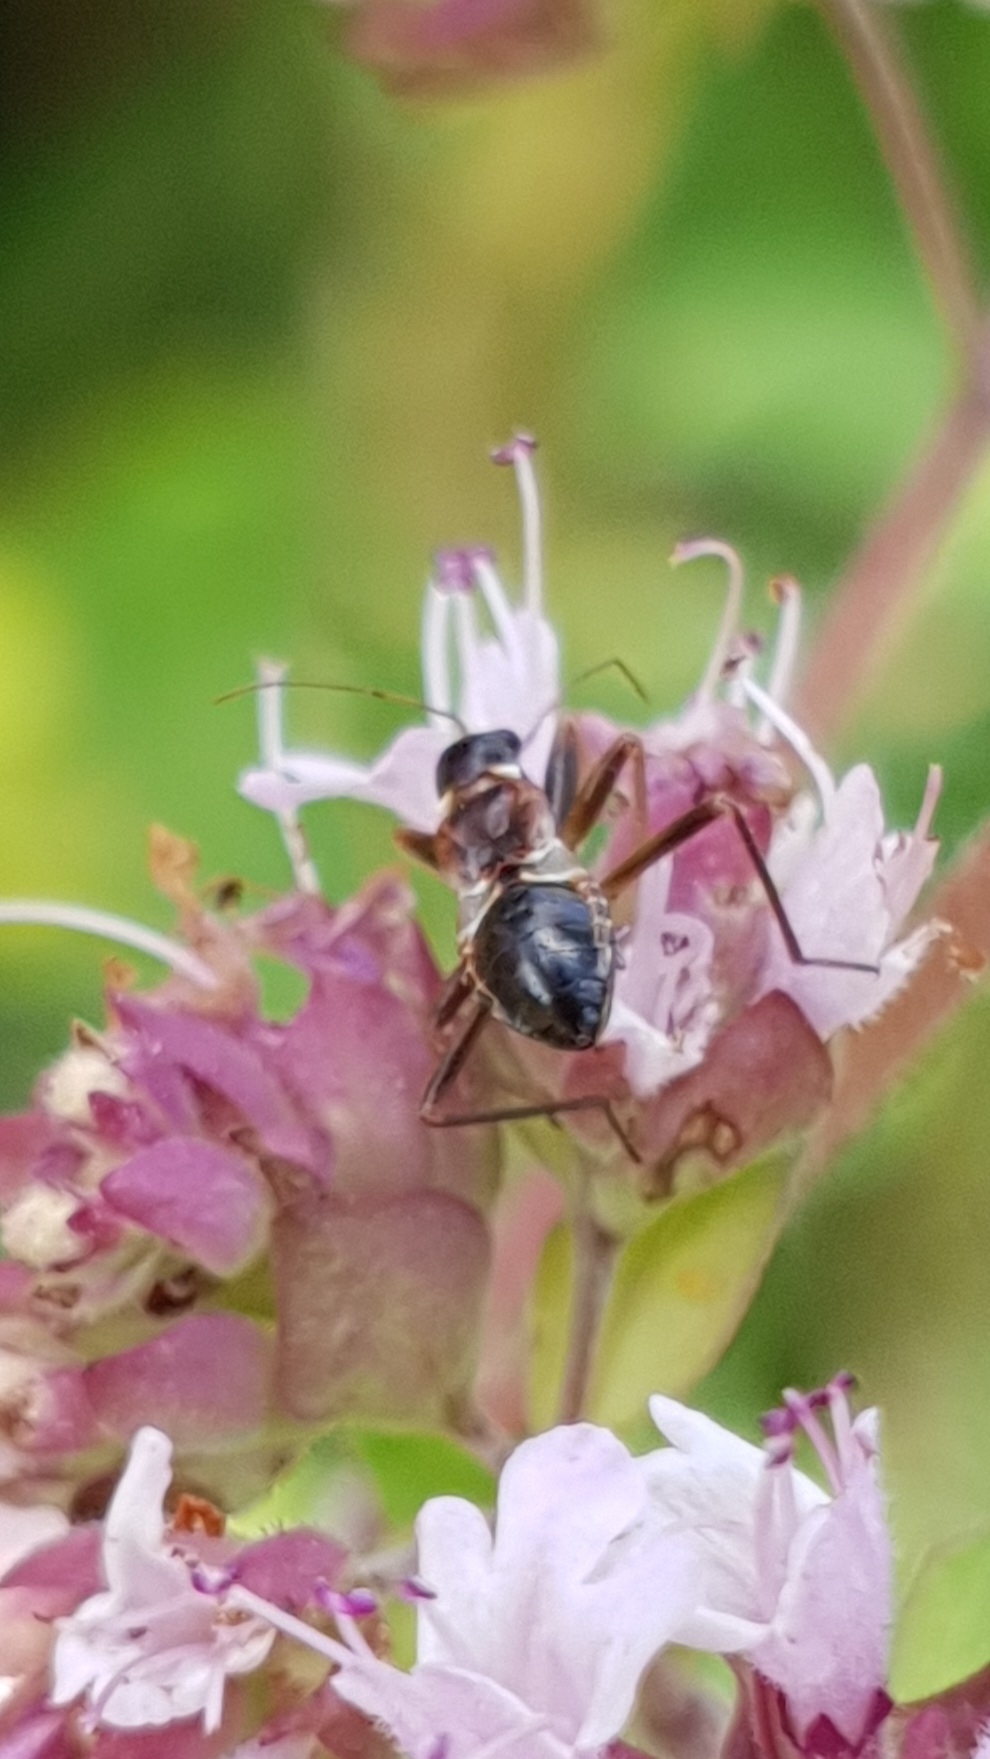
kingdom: Animalia
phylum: Arthropoda
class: Insecta
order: Hemiptera
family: Nabidae
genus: Himacerus
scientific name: Himacerus mirmicoides
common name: Ant damsel bug
